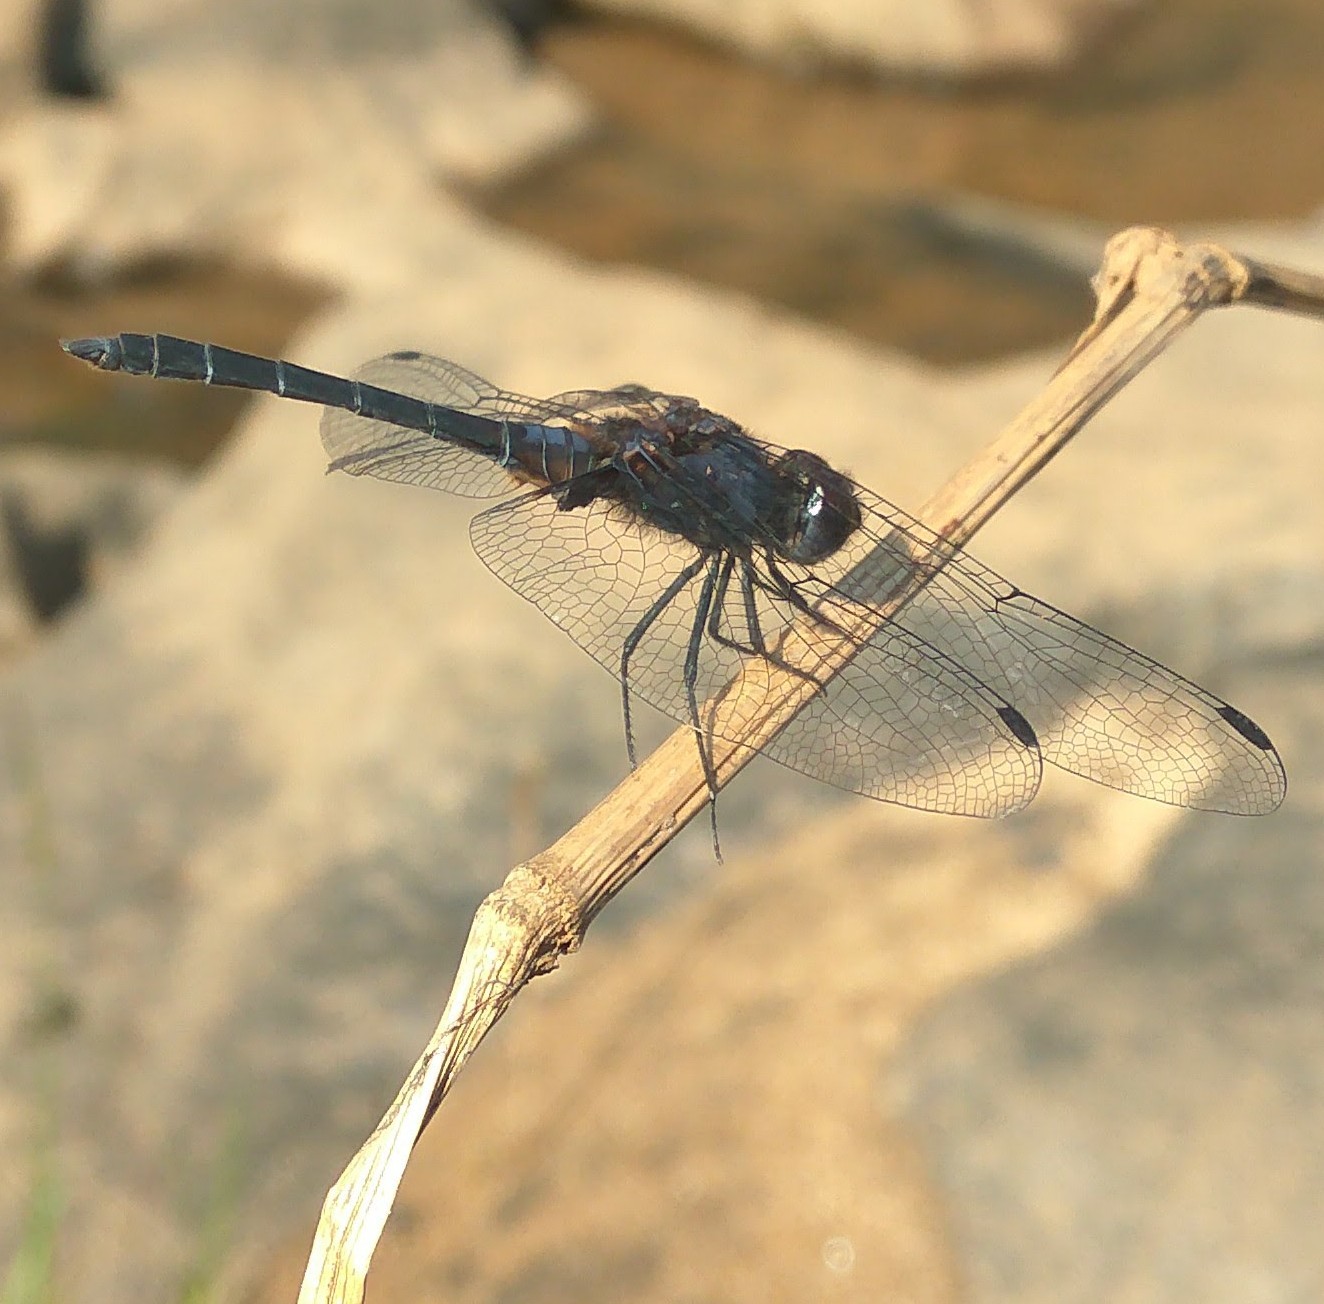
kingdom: Animalia
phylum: Arthropoda
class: Insecta
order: Odonata
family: Libellulidae
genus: Trithemis
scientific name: Trithemis festiva
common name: Indigo dropwing
